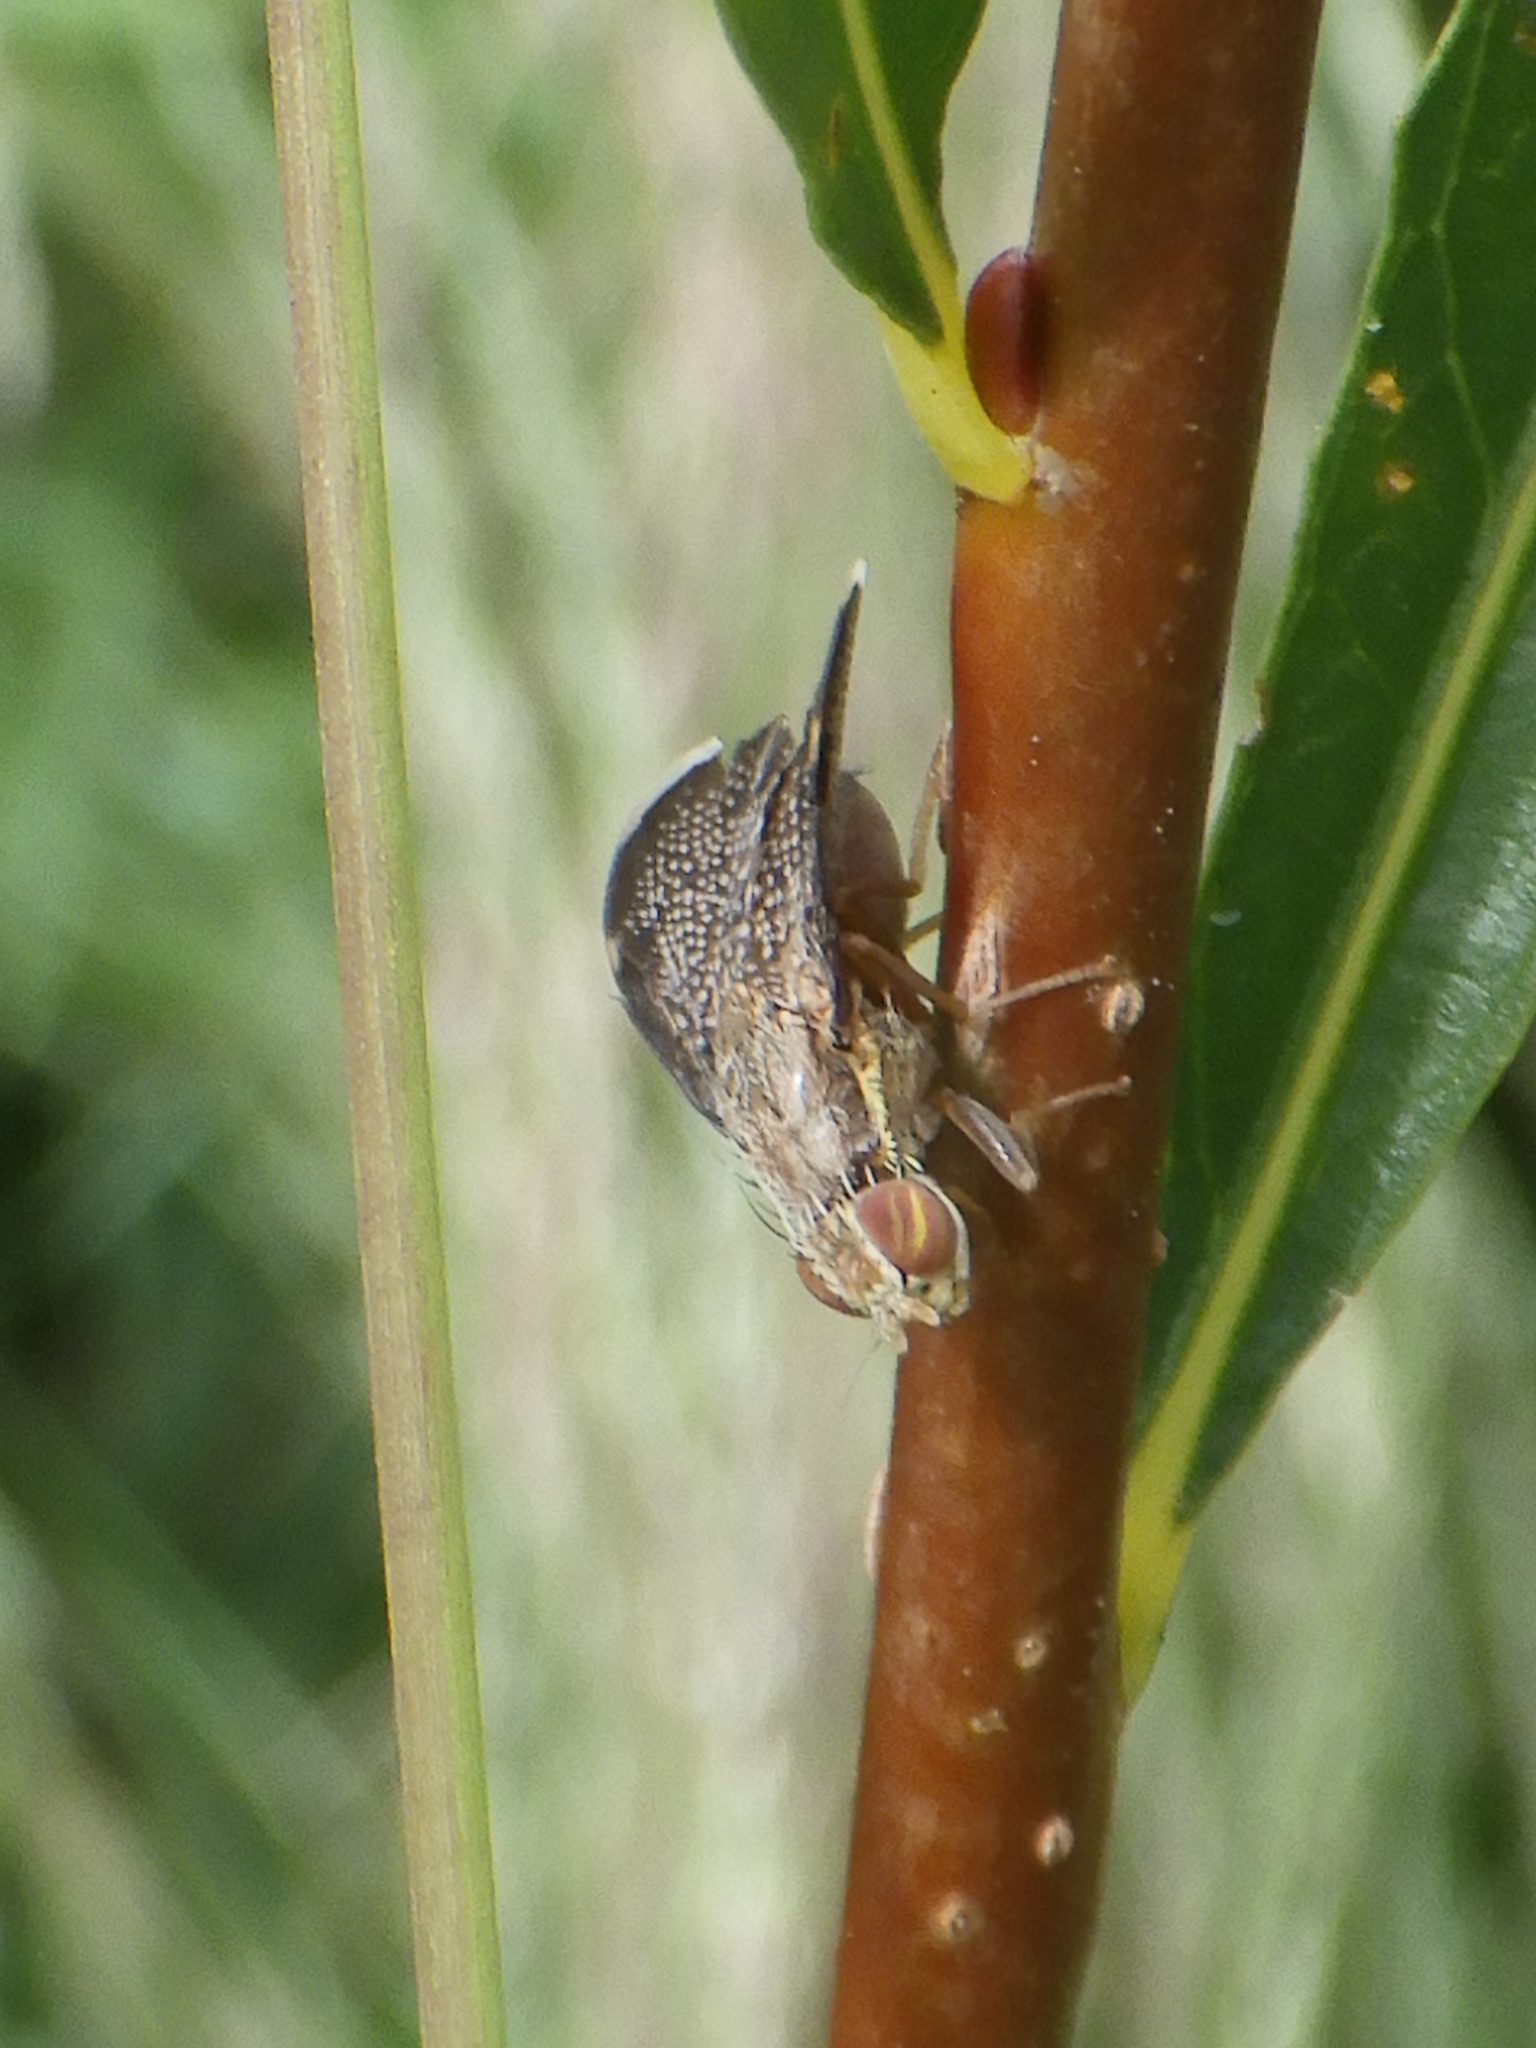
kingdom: Animalia
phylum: Arthropoda
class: Insecta
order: Diptera
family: Tephritidae
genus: Eutreta
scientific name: Eutreta
